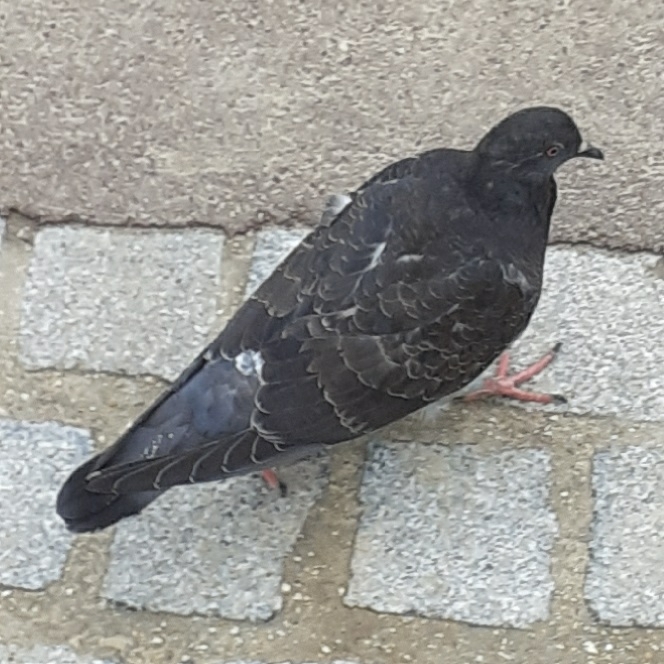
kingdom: Animalia
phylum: Chordata
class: Aves
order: Columbiformes
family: Columbidae
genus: Columba
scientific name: Columba livia
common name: Rock pigeon
